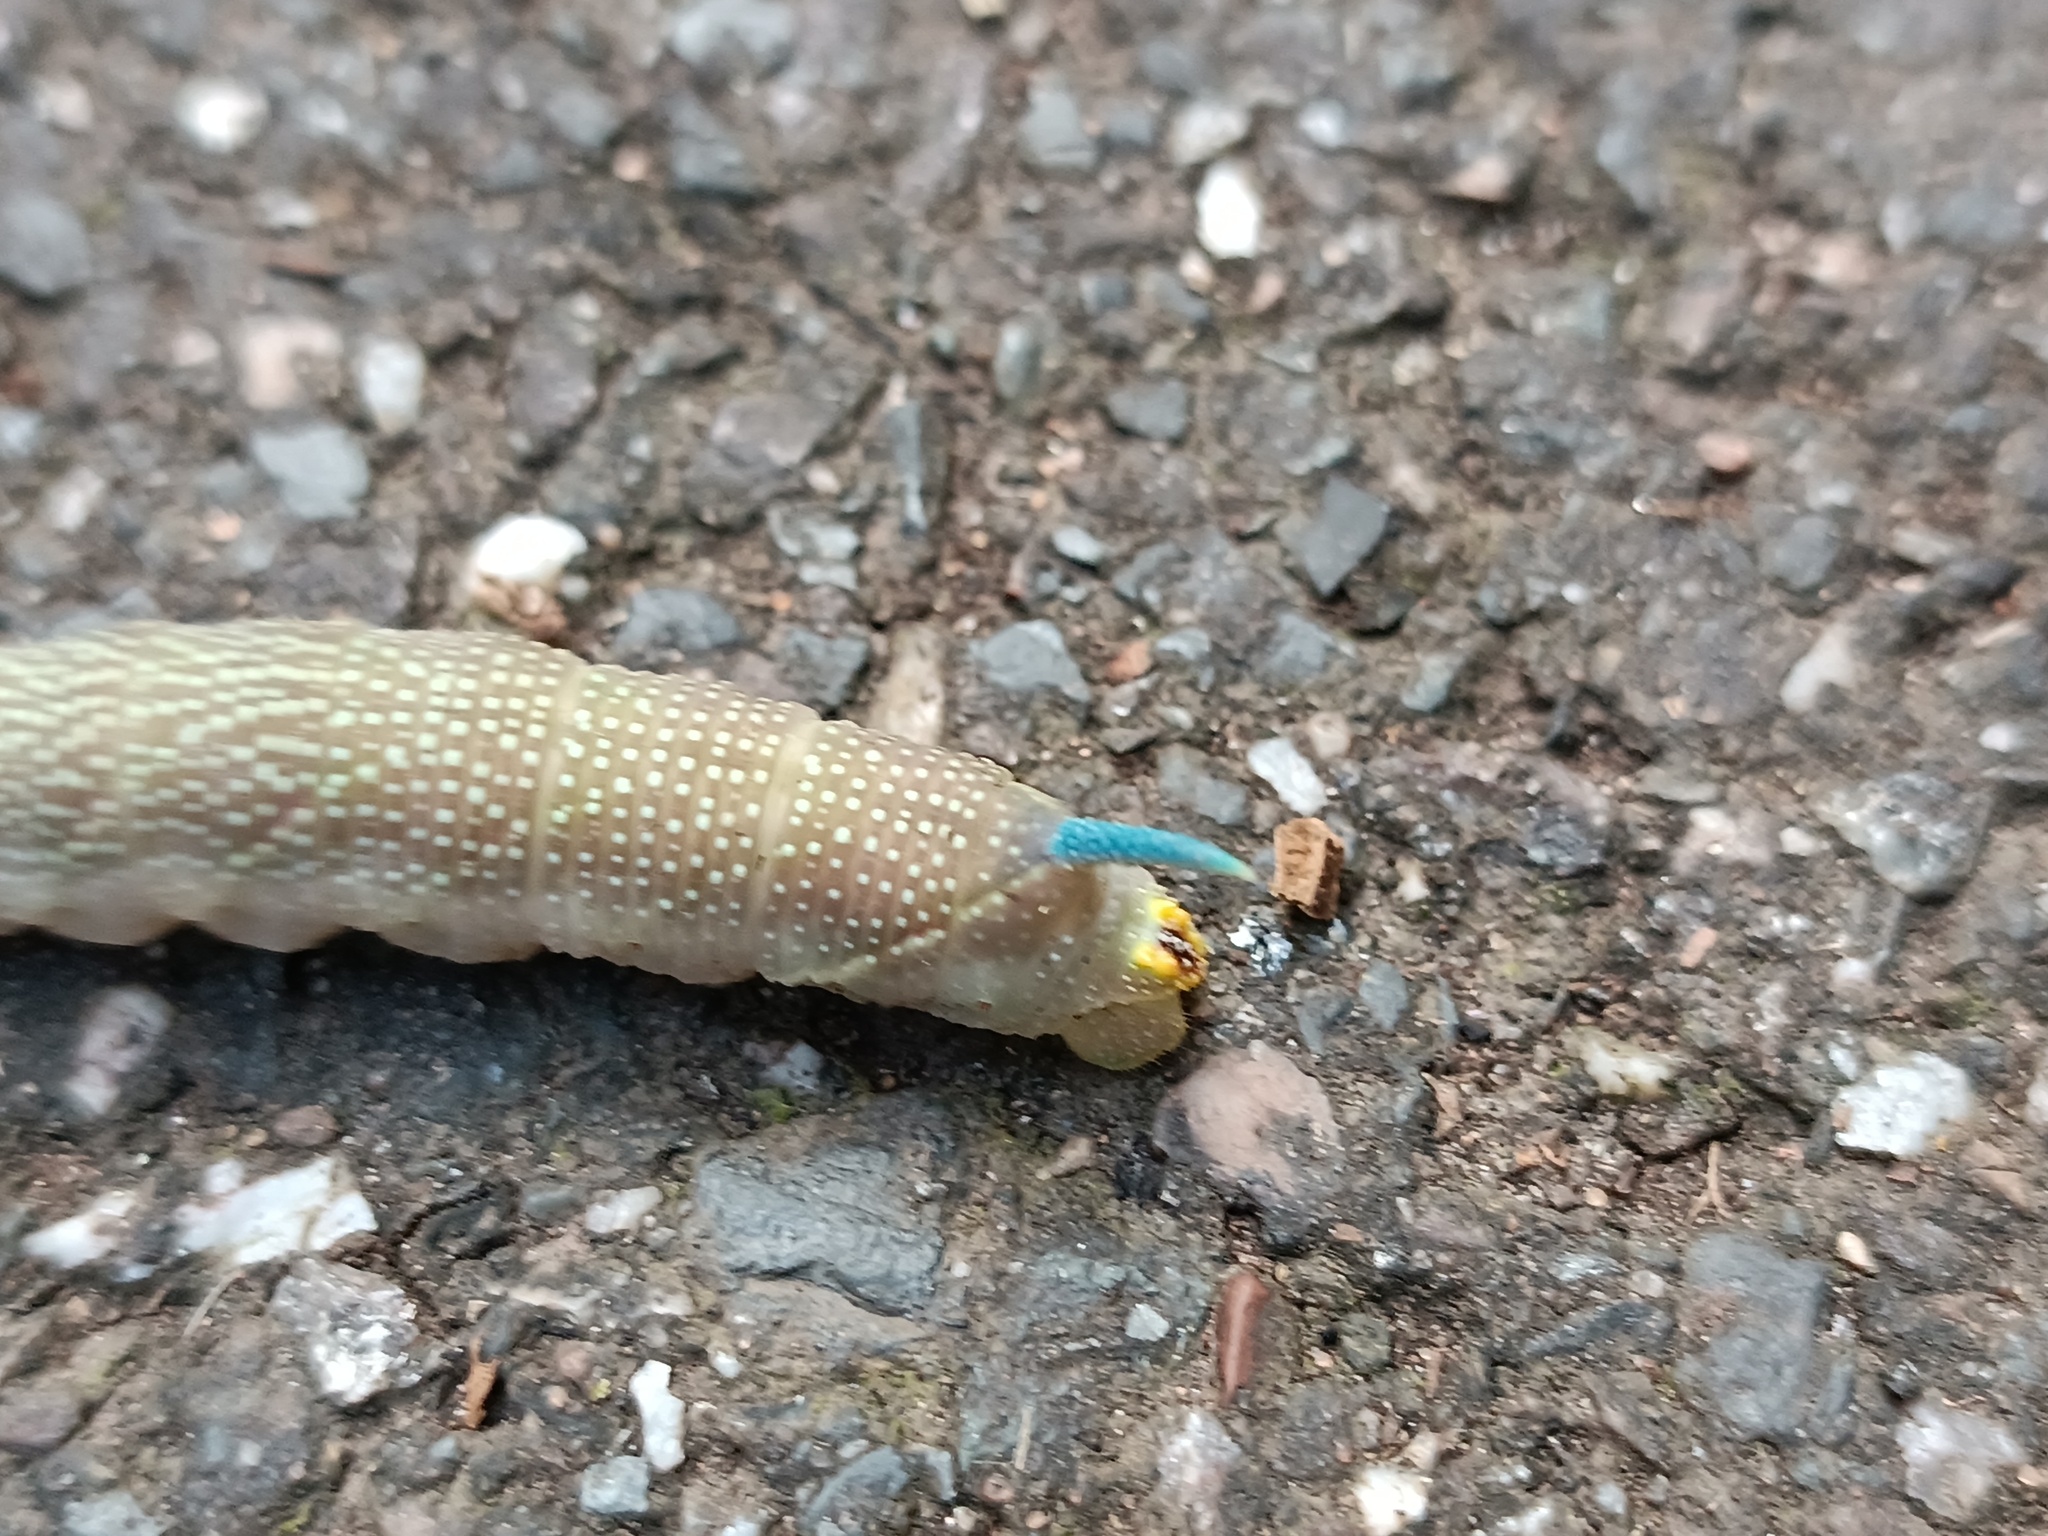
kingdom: Animalia
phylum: Arthropoda
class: Insecta
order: Lepidoptera
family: Sphingidae
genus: Mimas
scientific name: Mimas tiliae
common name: Lime hawk-moth
